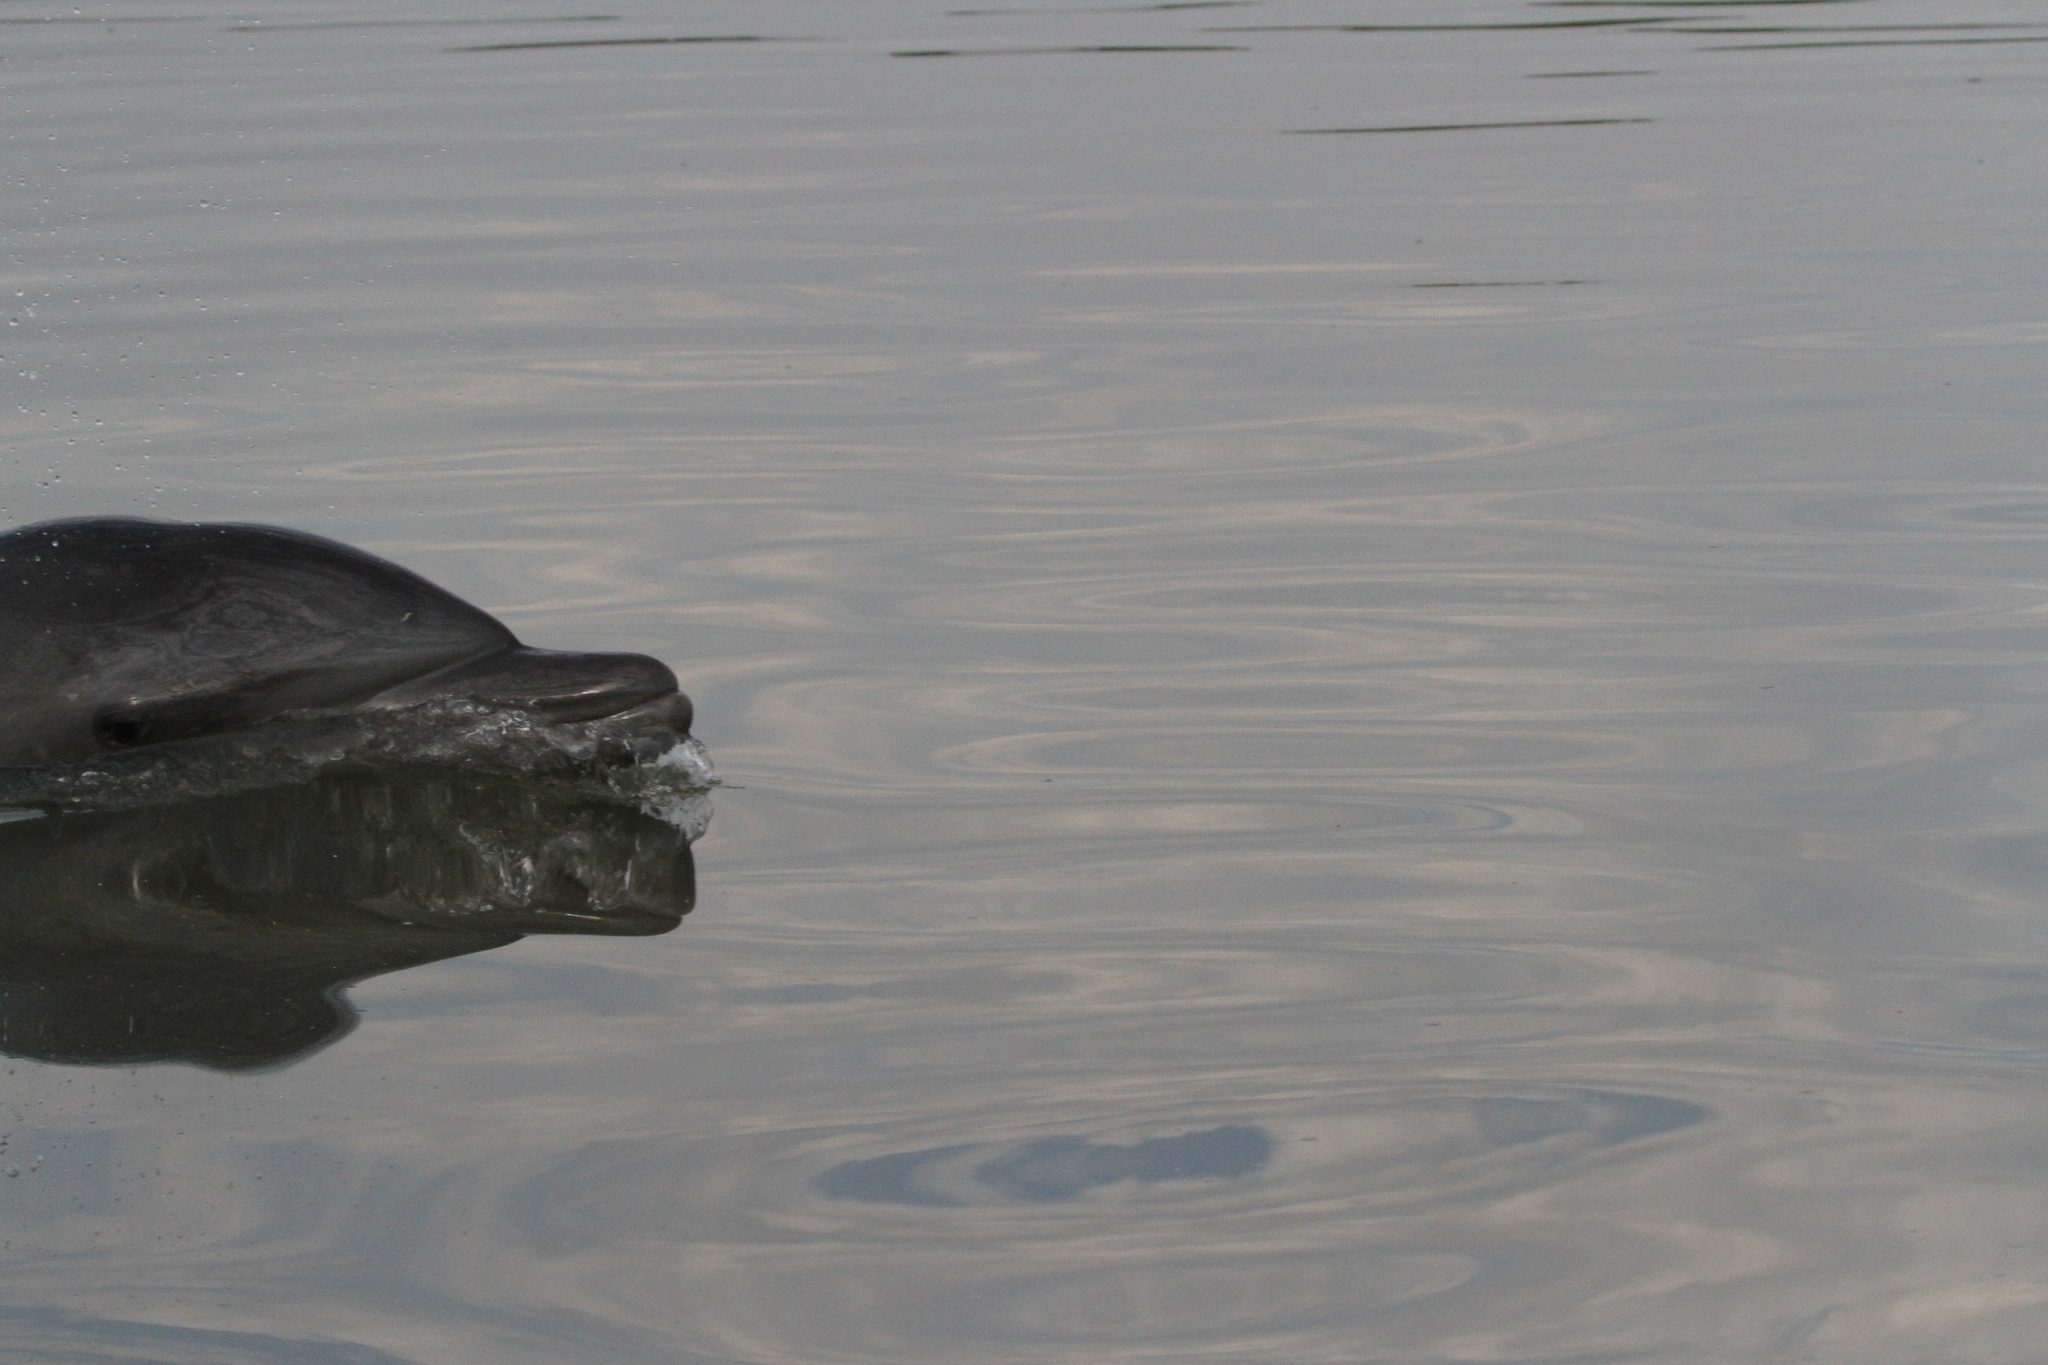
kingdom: Animalia
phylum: Chordata
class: Mammalia
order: Cetacea
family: Delphinidae
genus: Tursiops
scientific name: Tursiops truncatus
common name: Bottlenose dolphin
